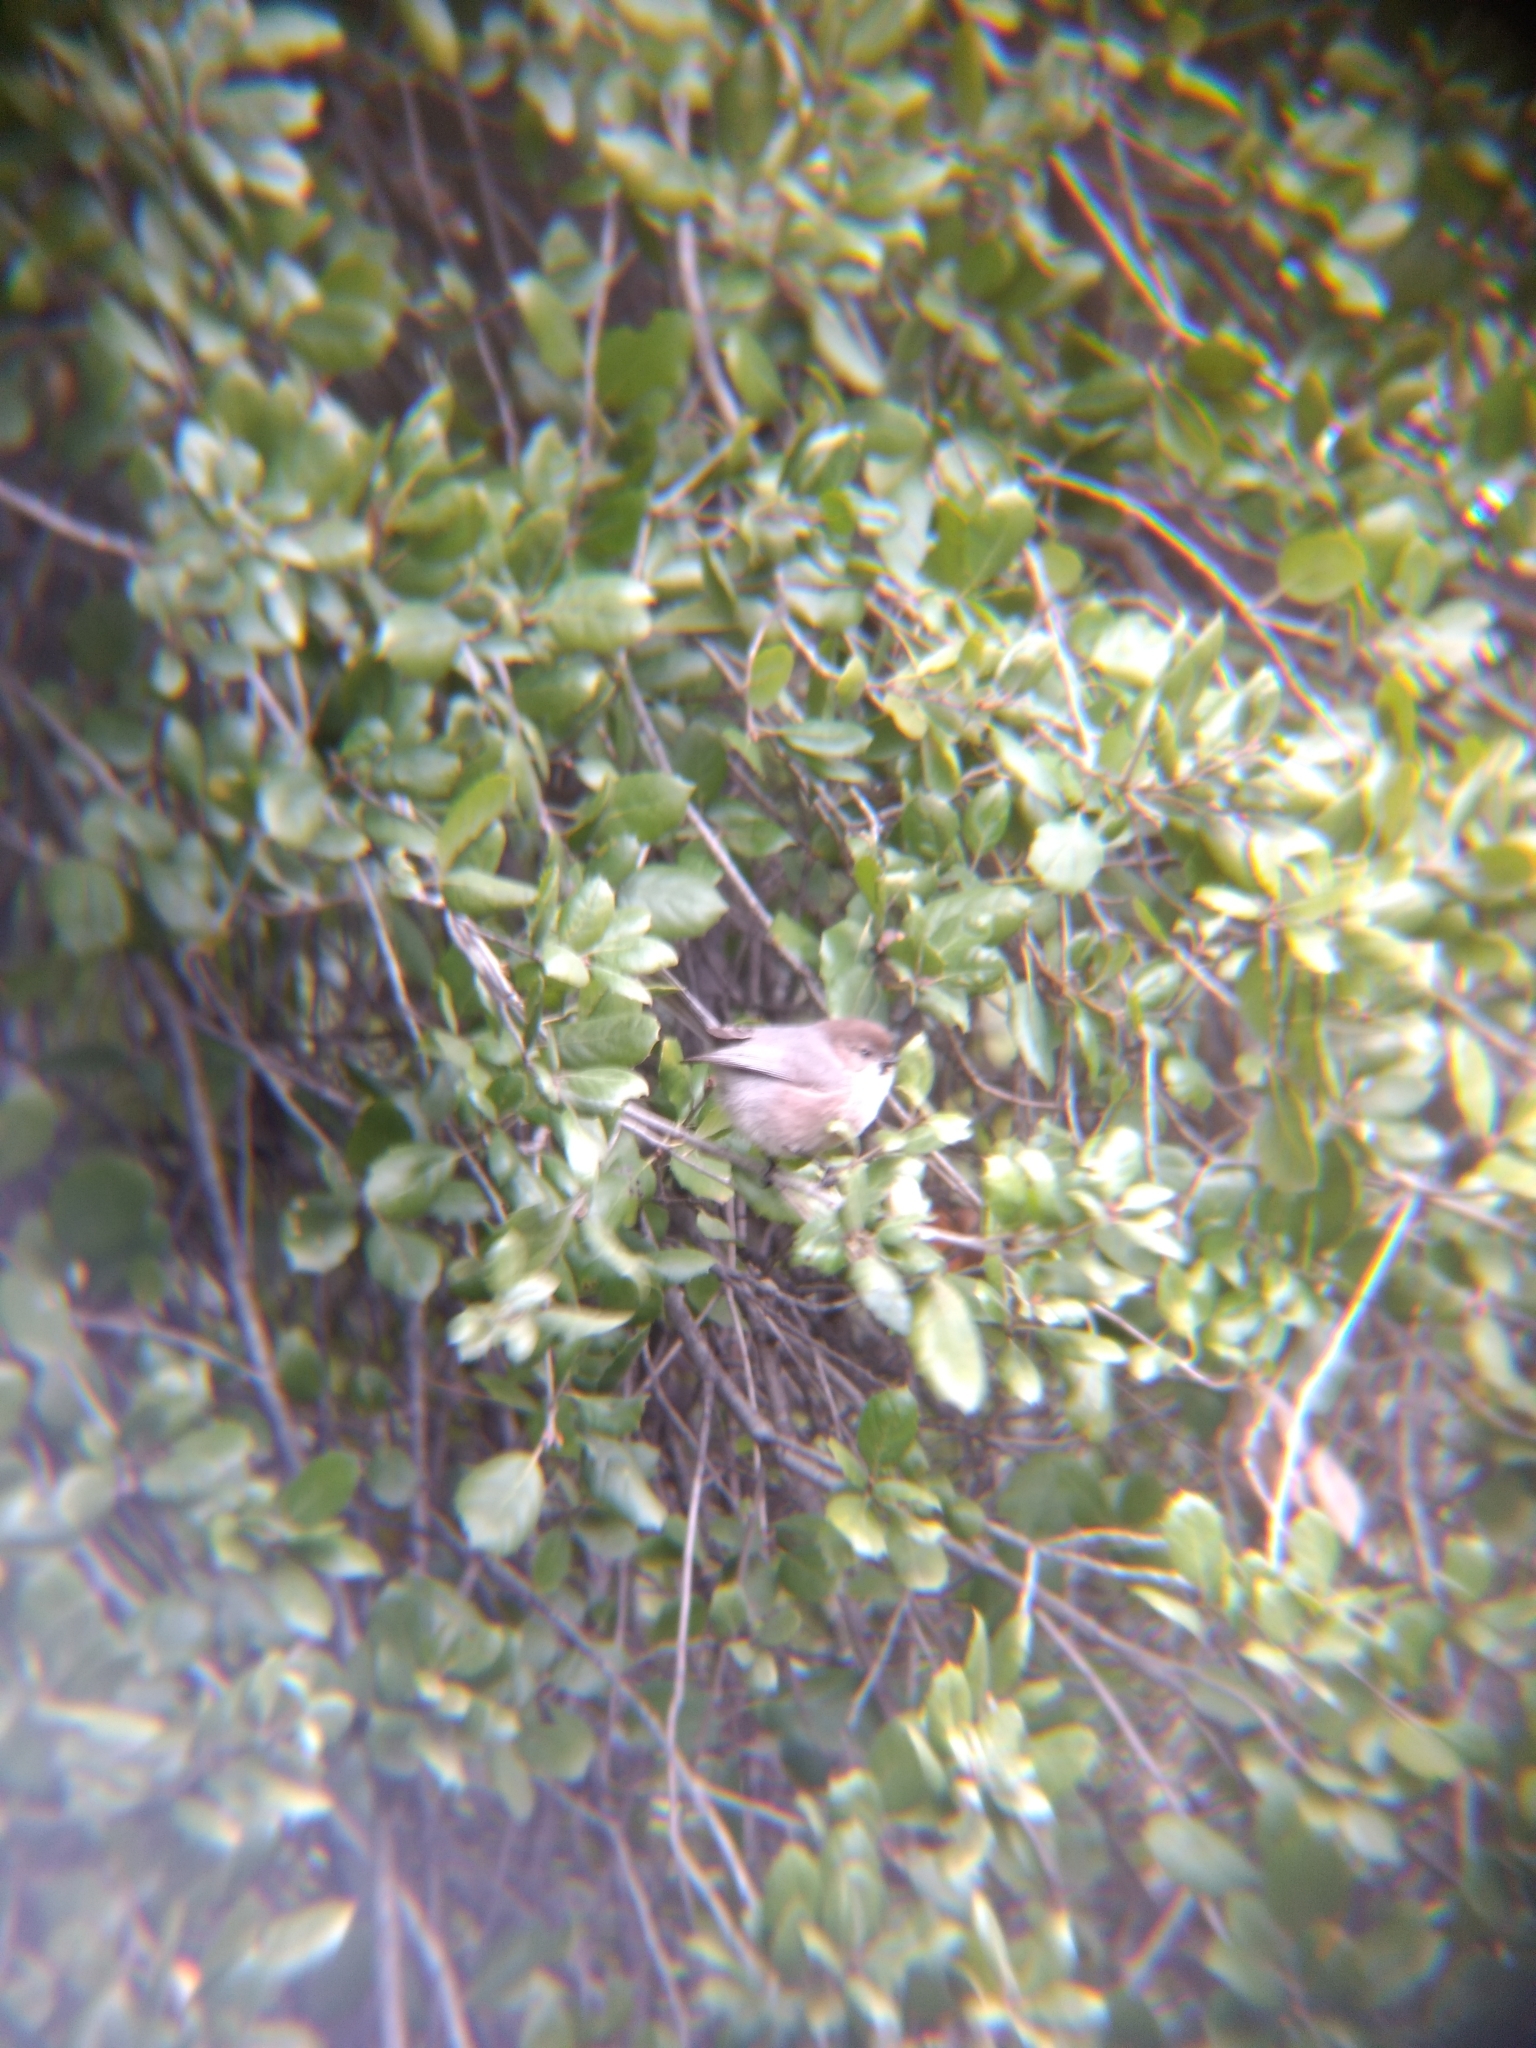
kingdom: Animalia
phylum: Chordata
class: Aves
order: Passeriformes
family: Aegithalidae
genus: Psaltriparus
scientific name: Psaltriparus minimus
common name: American bushtit
